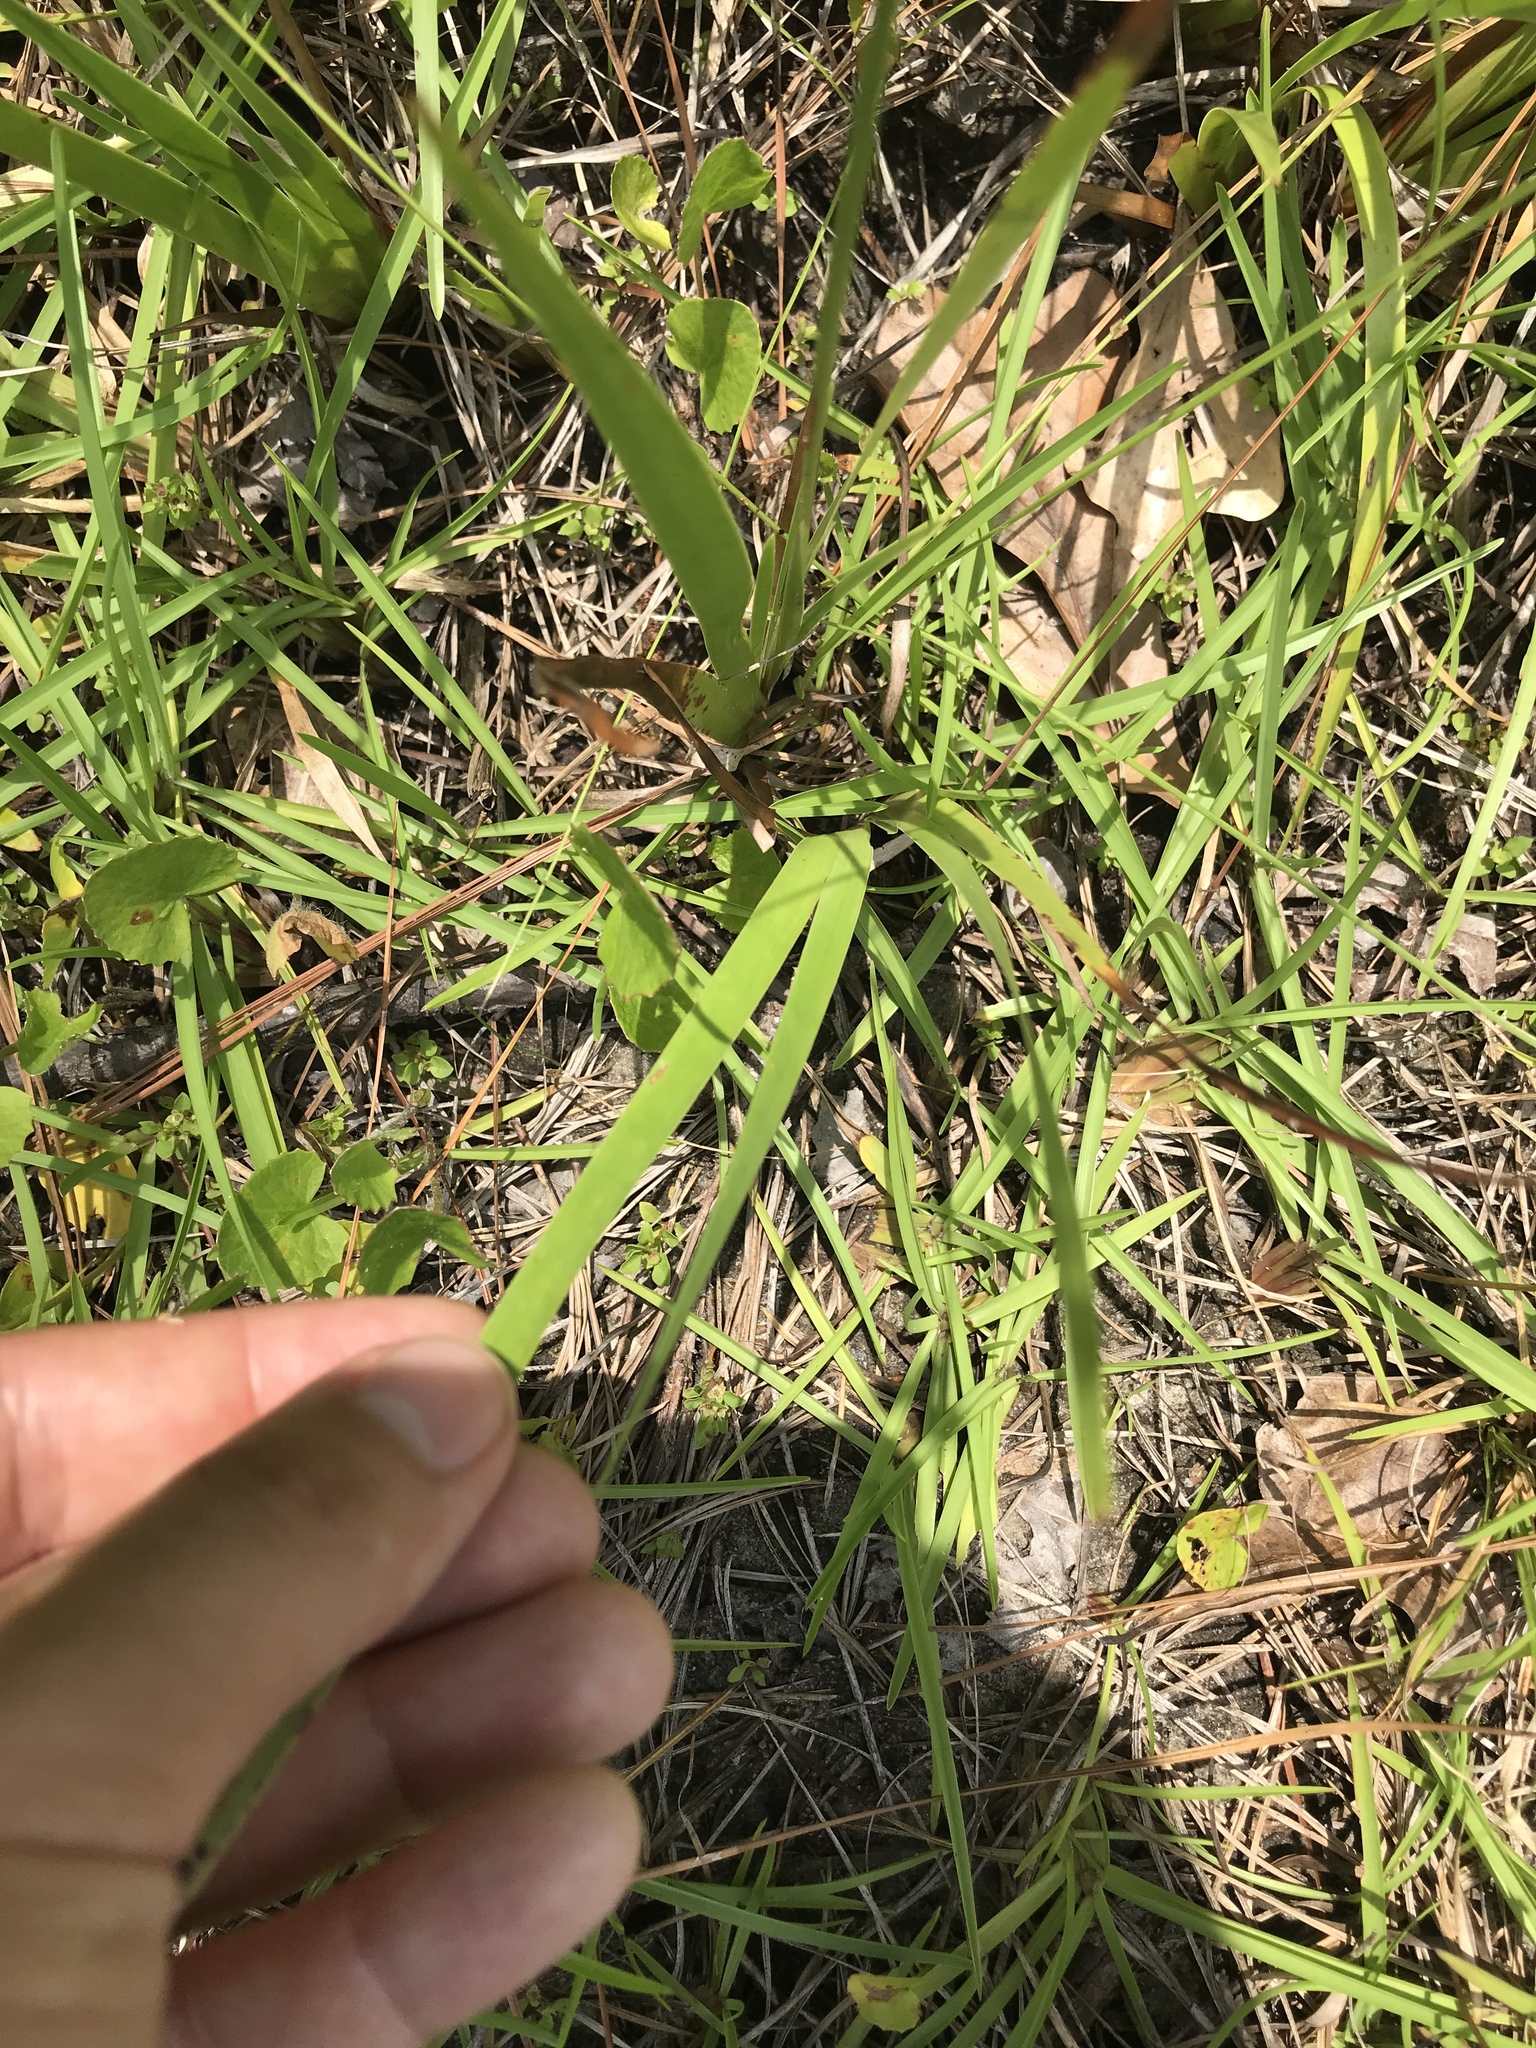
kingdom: Plantae
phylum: Tracheophyta
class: Liliopsida
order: Poales
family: Xyridaceae
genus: Xyris
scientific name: Xyris ambigua
